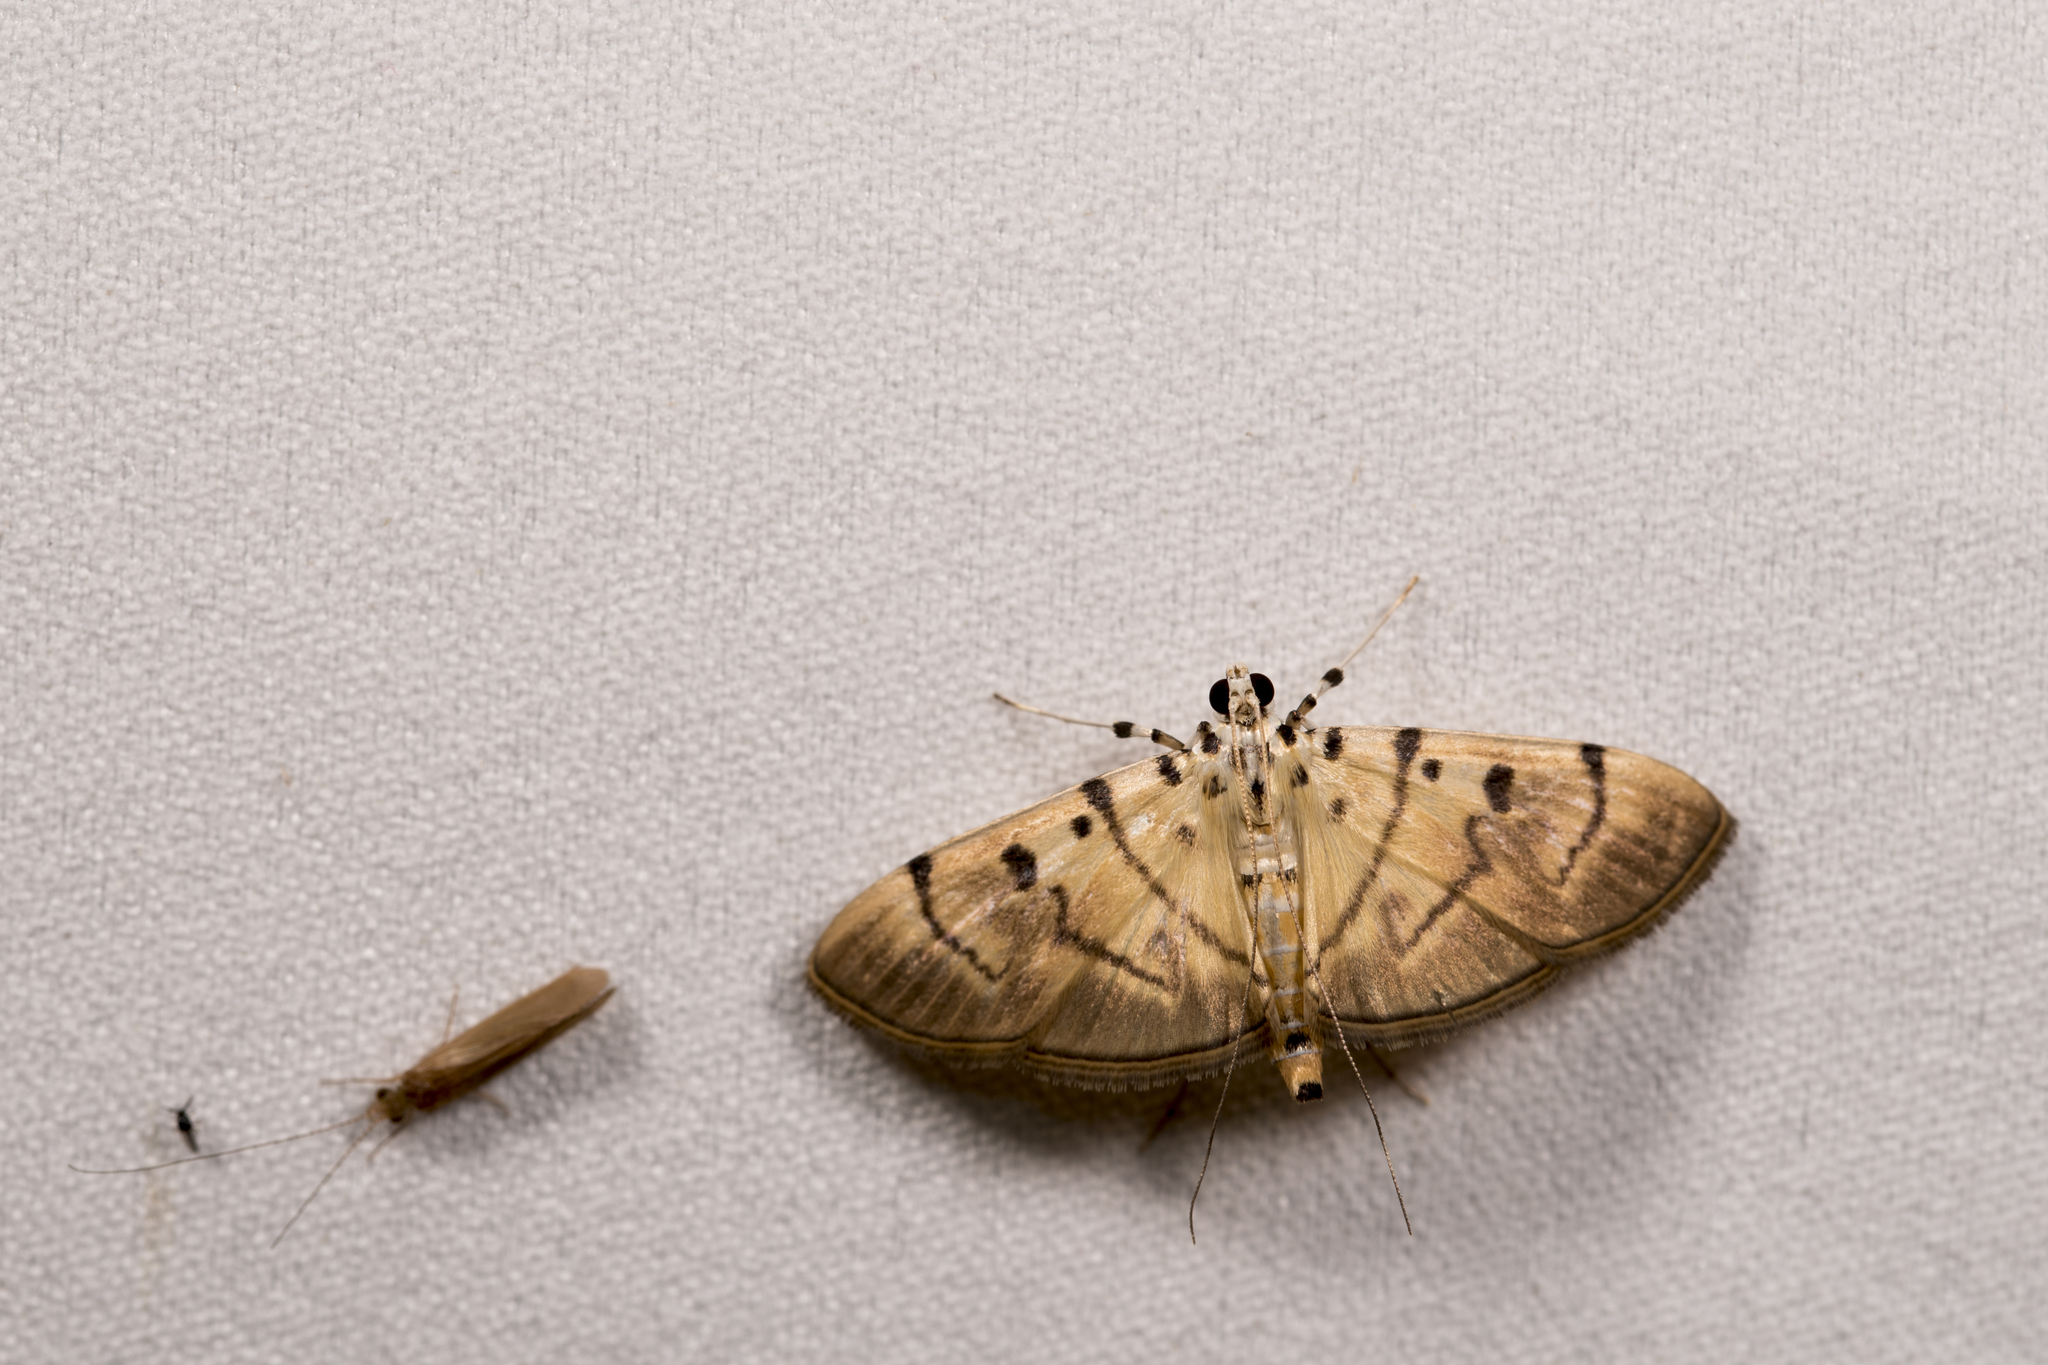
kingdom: Animalia
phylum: Arthropoda
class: Insecta
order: Lepidoptera
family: Crambidae
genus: Dichocrocis
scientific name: Dichocrocis definita
